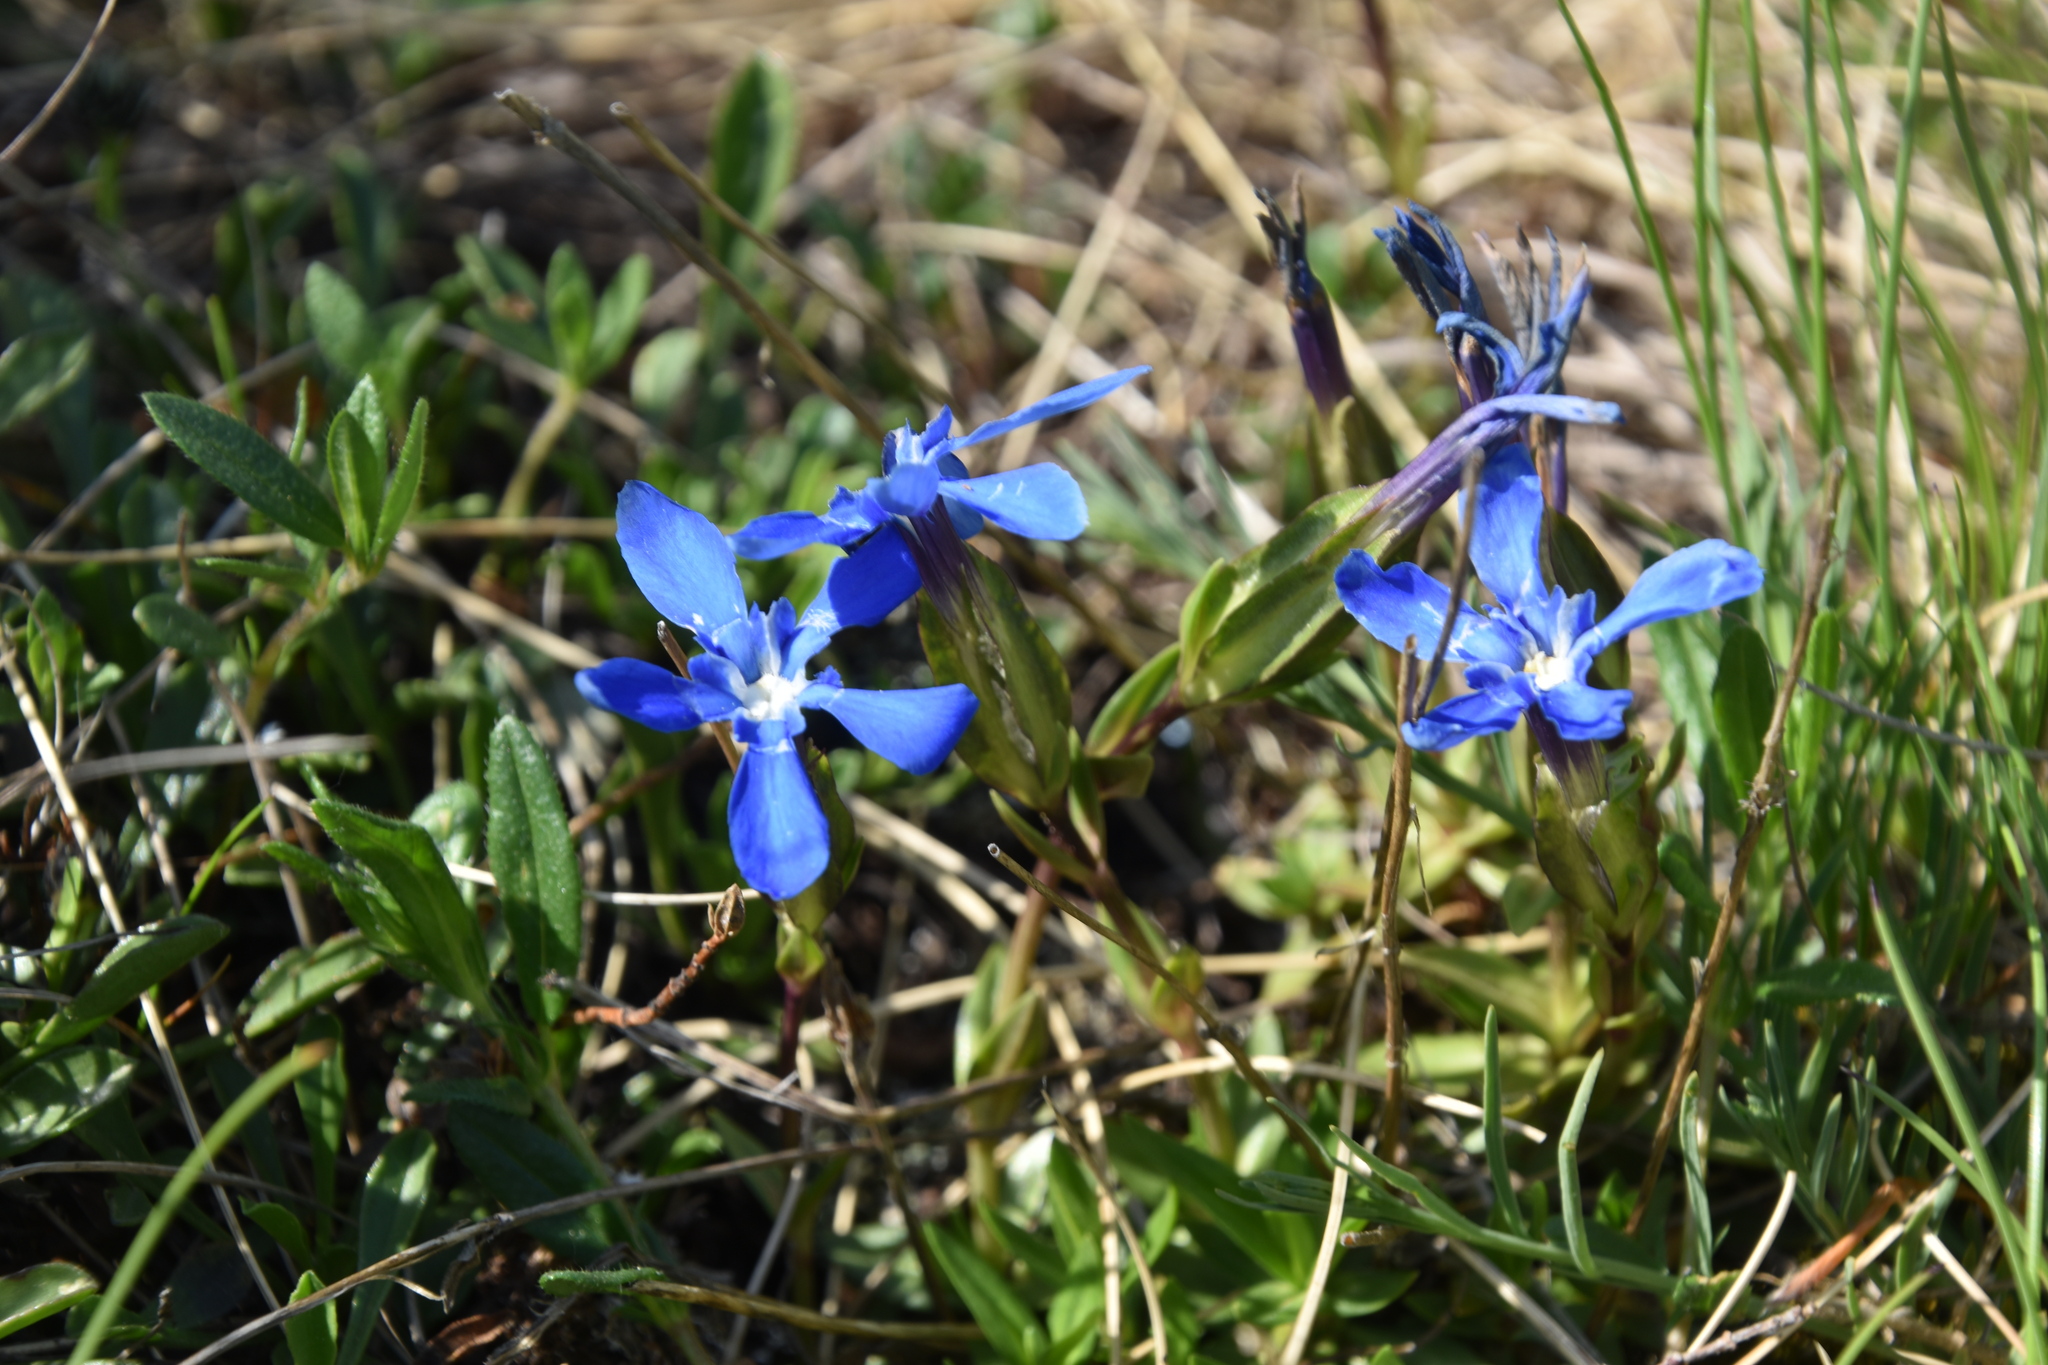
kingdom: Plantae
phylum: Tracheophyta
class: Magnoliopsida
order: Gentianales
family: Gentianaceae
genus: Gentiana
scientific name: Gentiana verna
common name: Spring gentian
